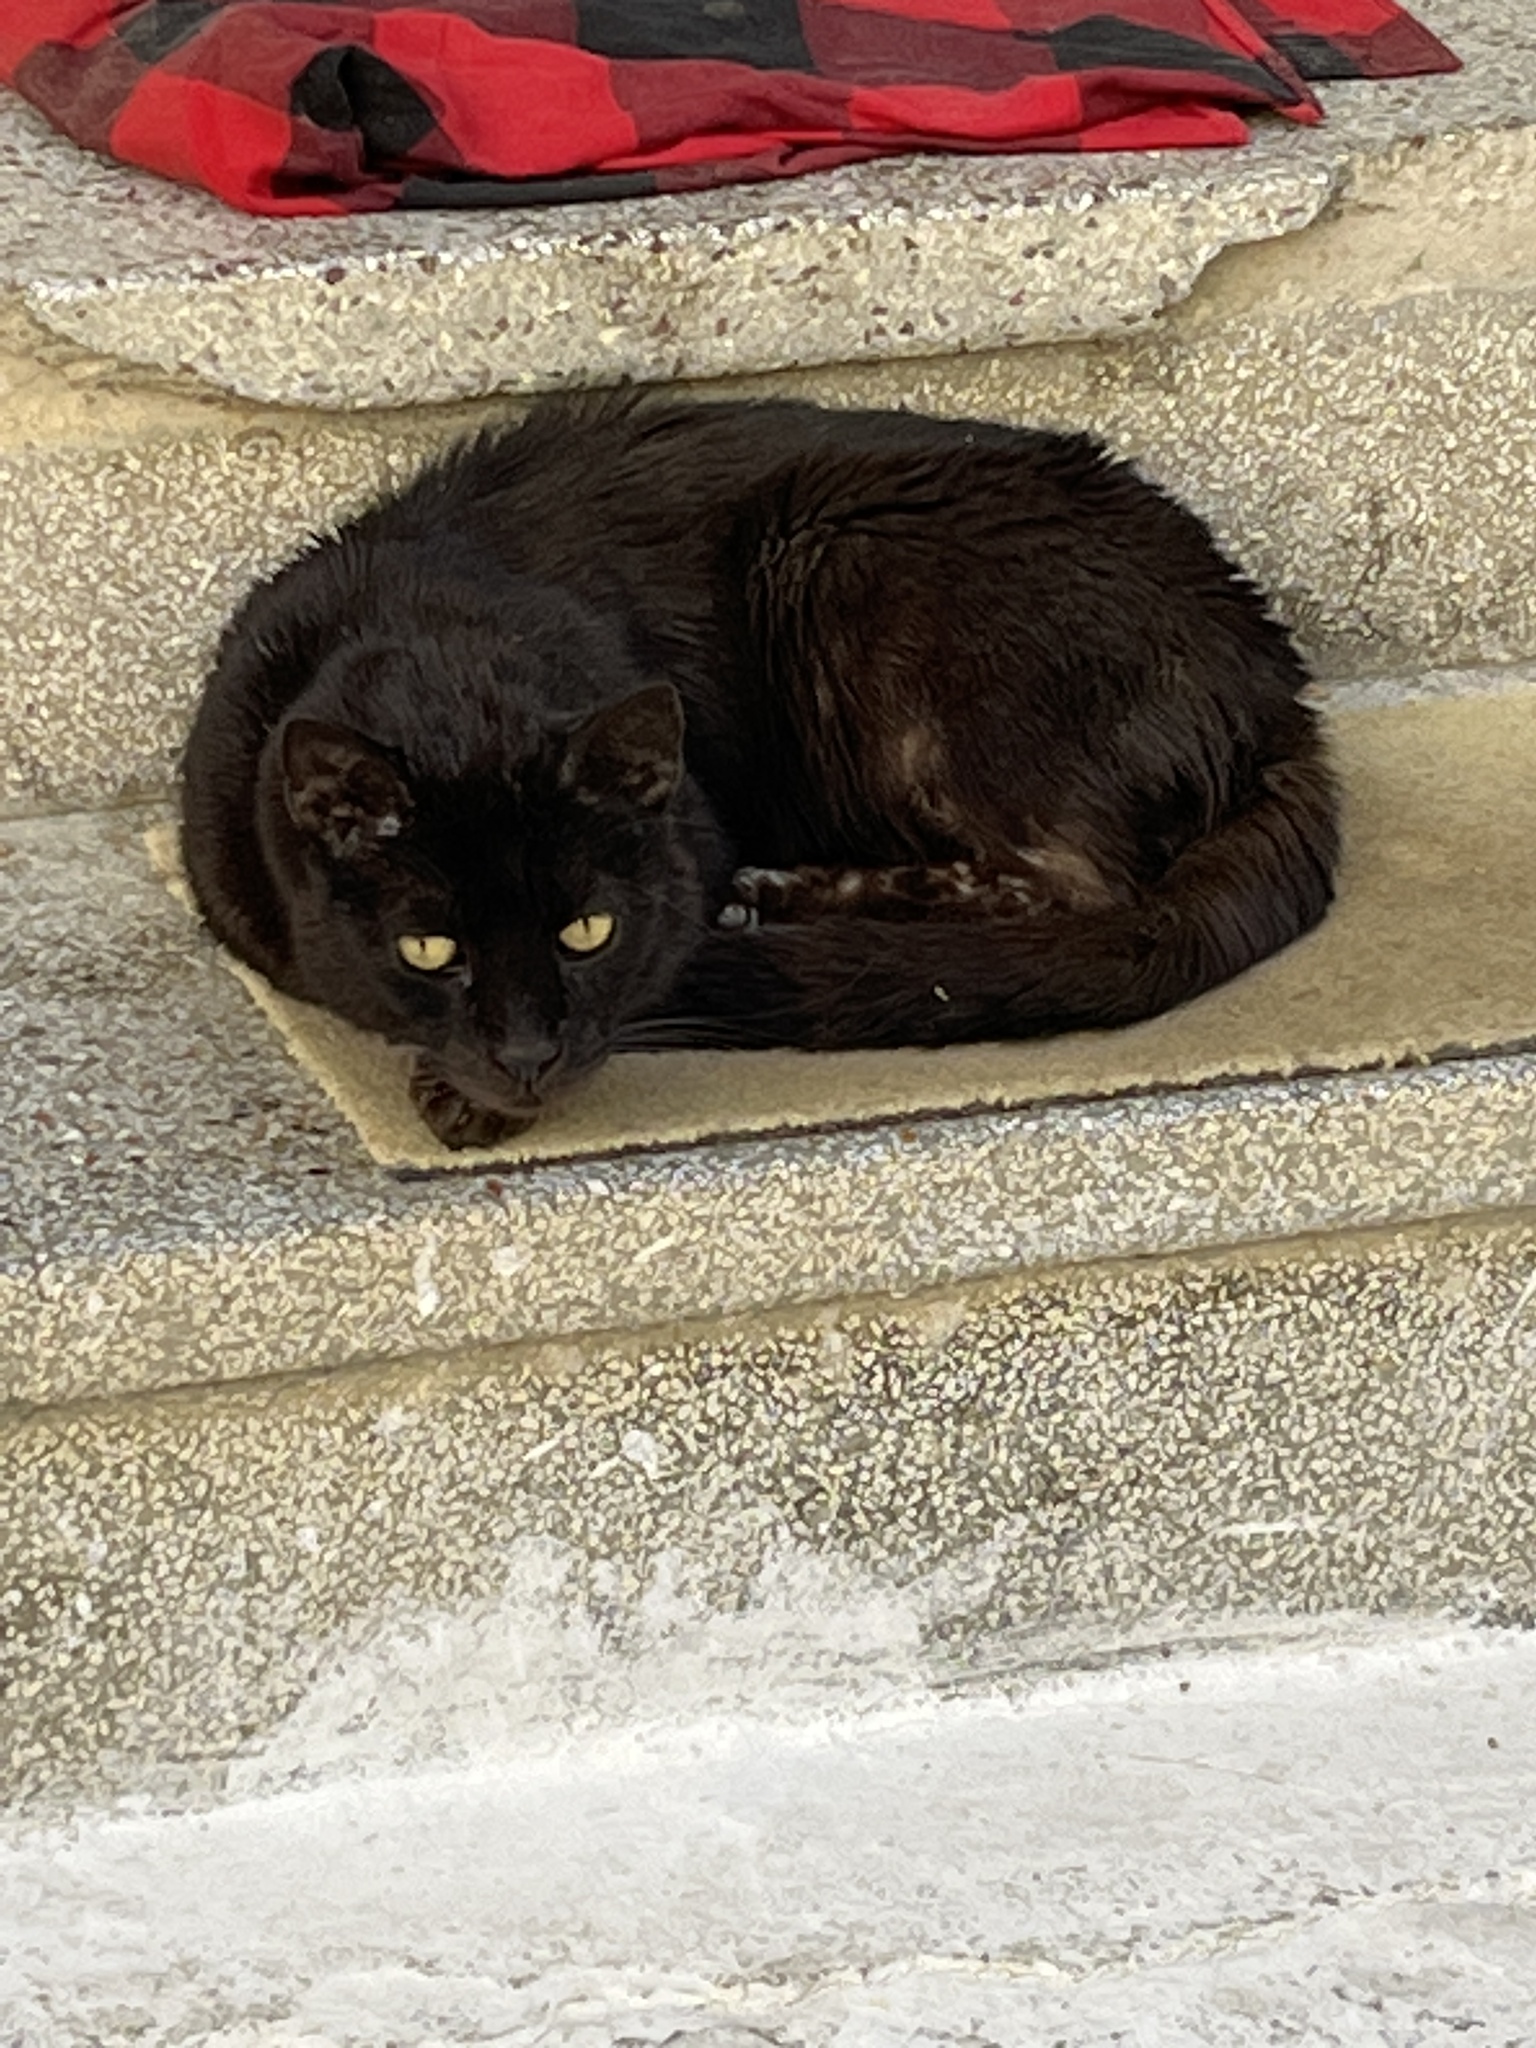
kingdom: Animalia
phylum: Chordata
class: Mammalia
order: Carnivora
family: Felidae
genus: Felis
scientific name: Felis catus
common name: Domestic cat
